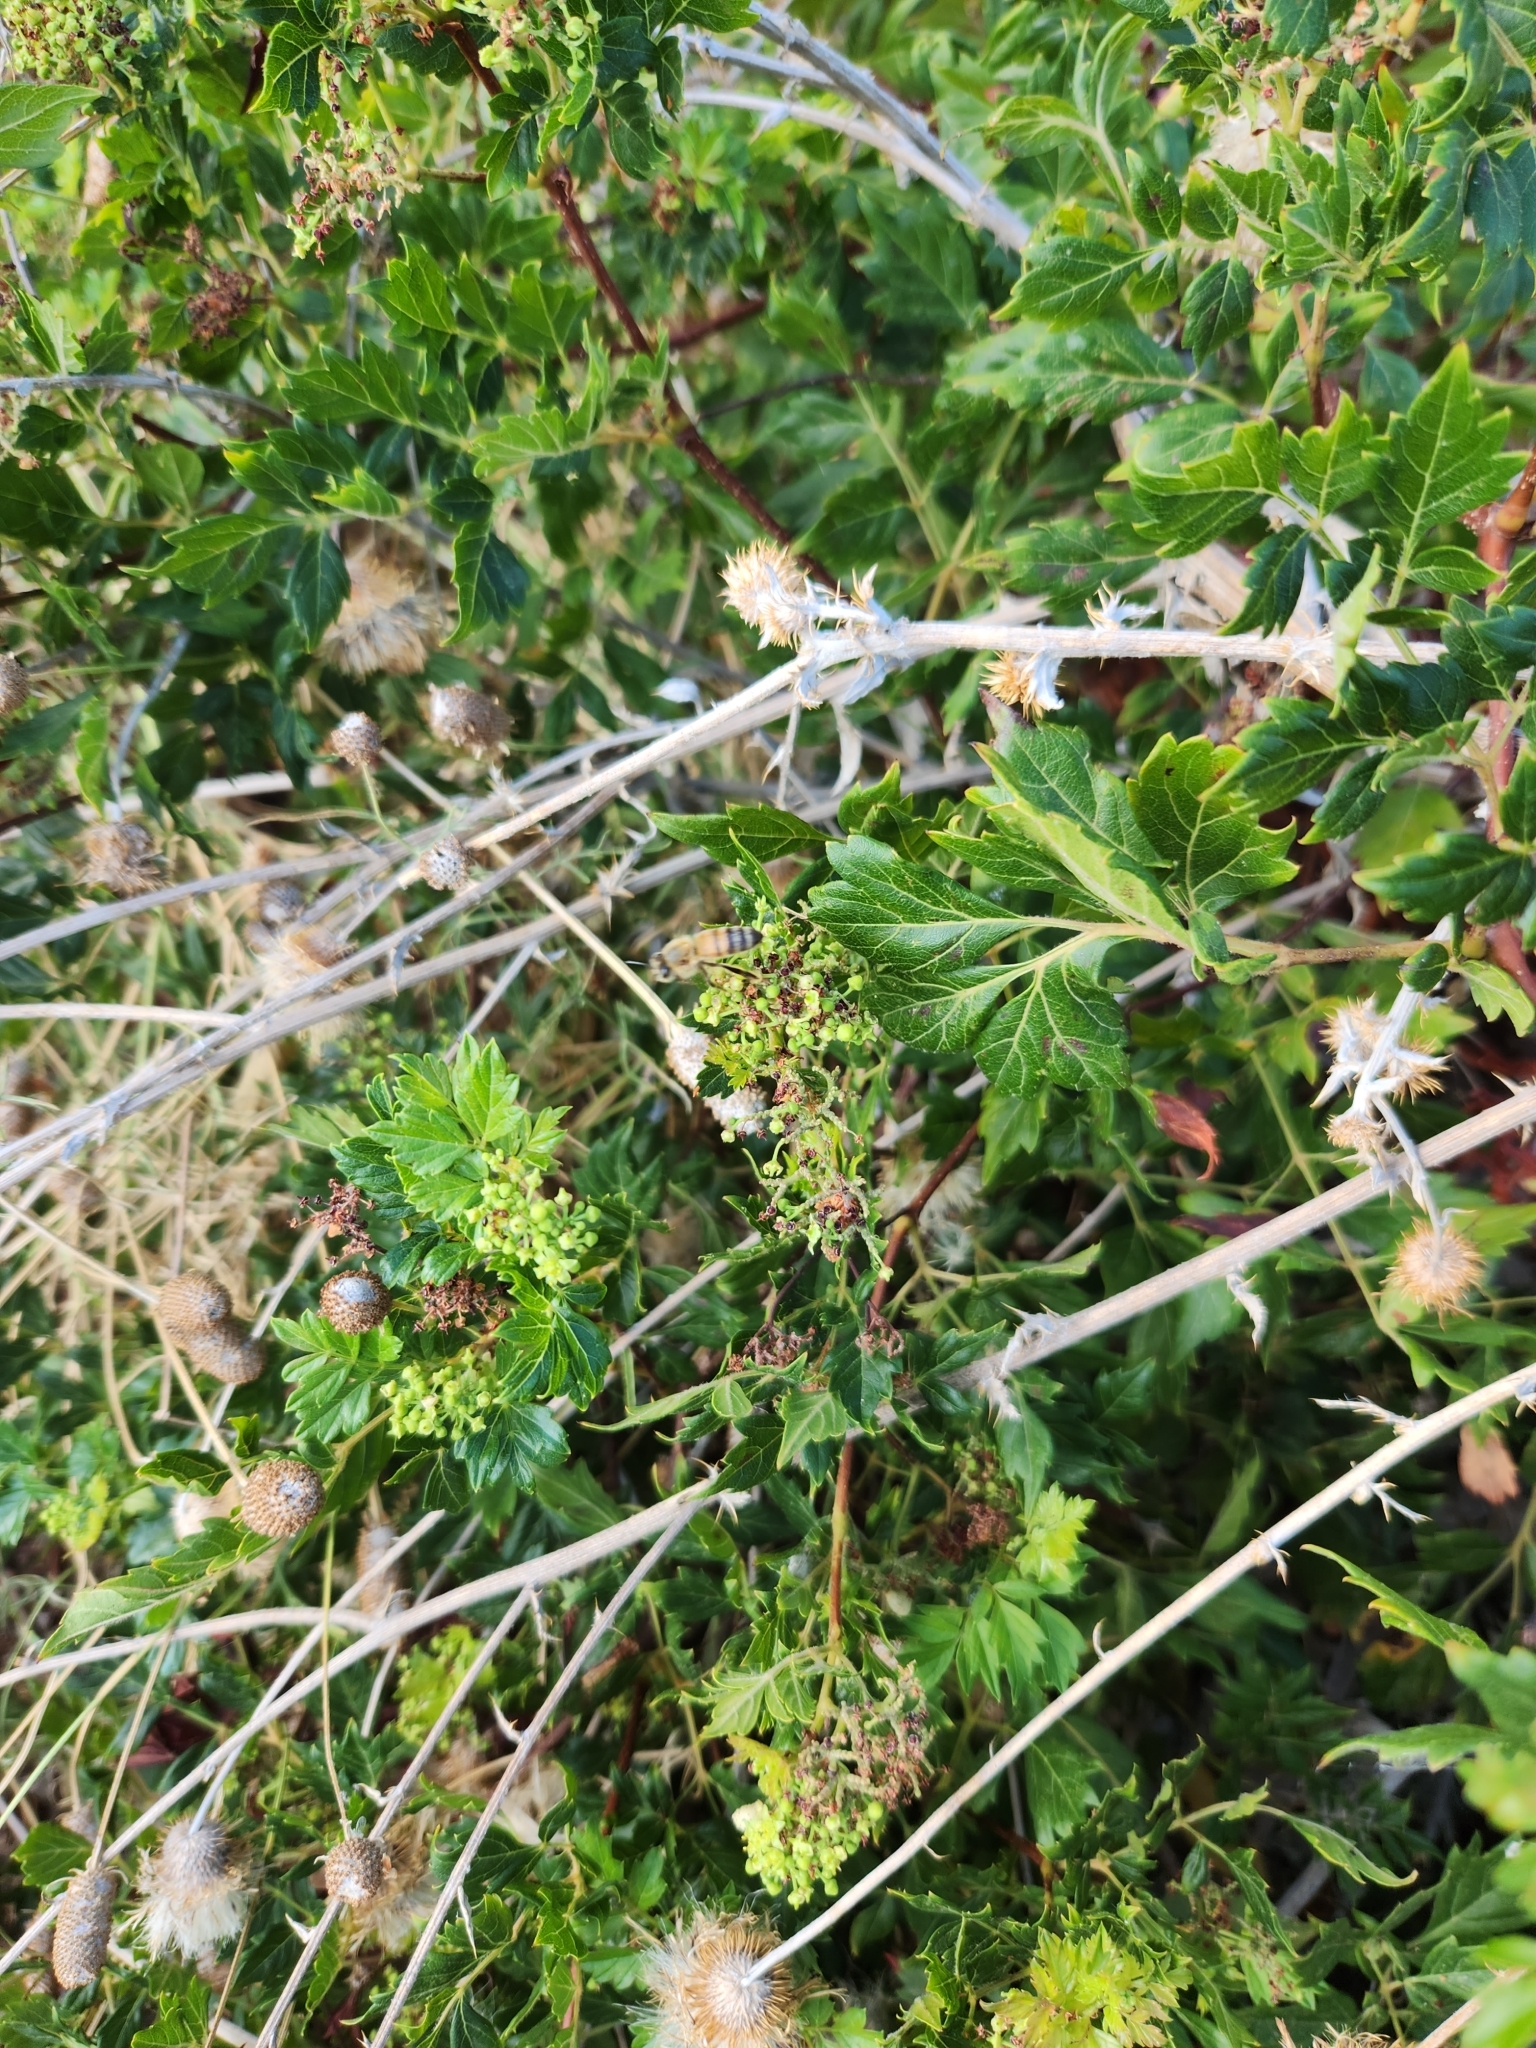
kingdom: Animalia
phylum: Arthropoda
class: Insecta
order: Hymenoptera
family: Apidae
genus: Apis
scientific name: Apis mellifera
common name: Honey bee
